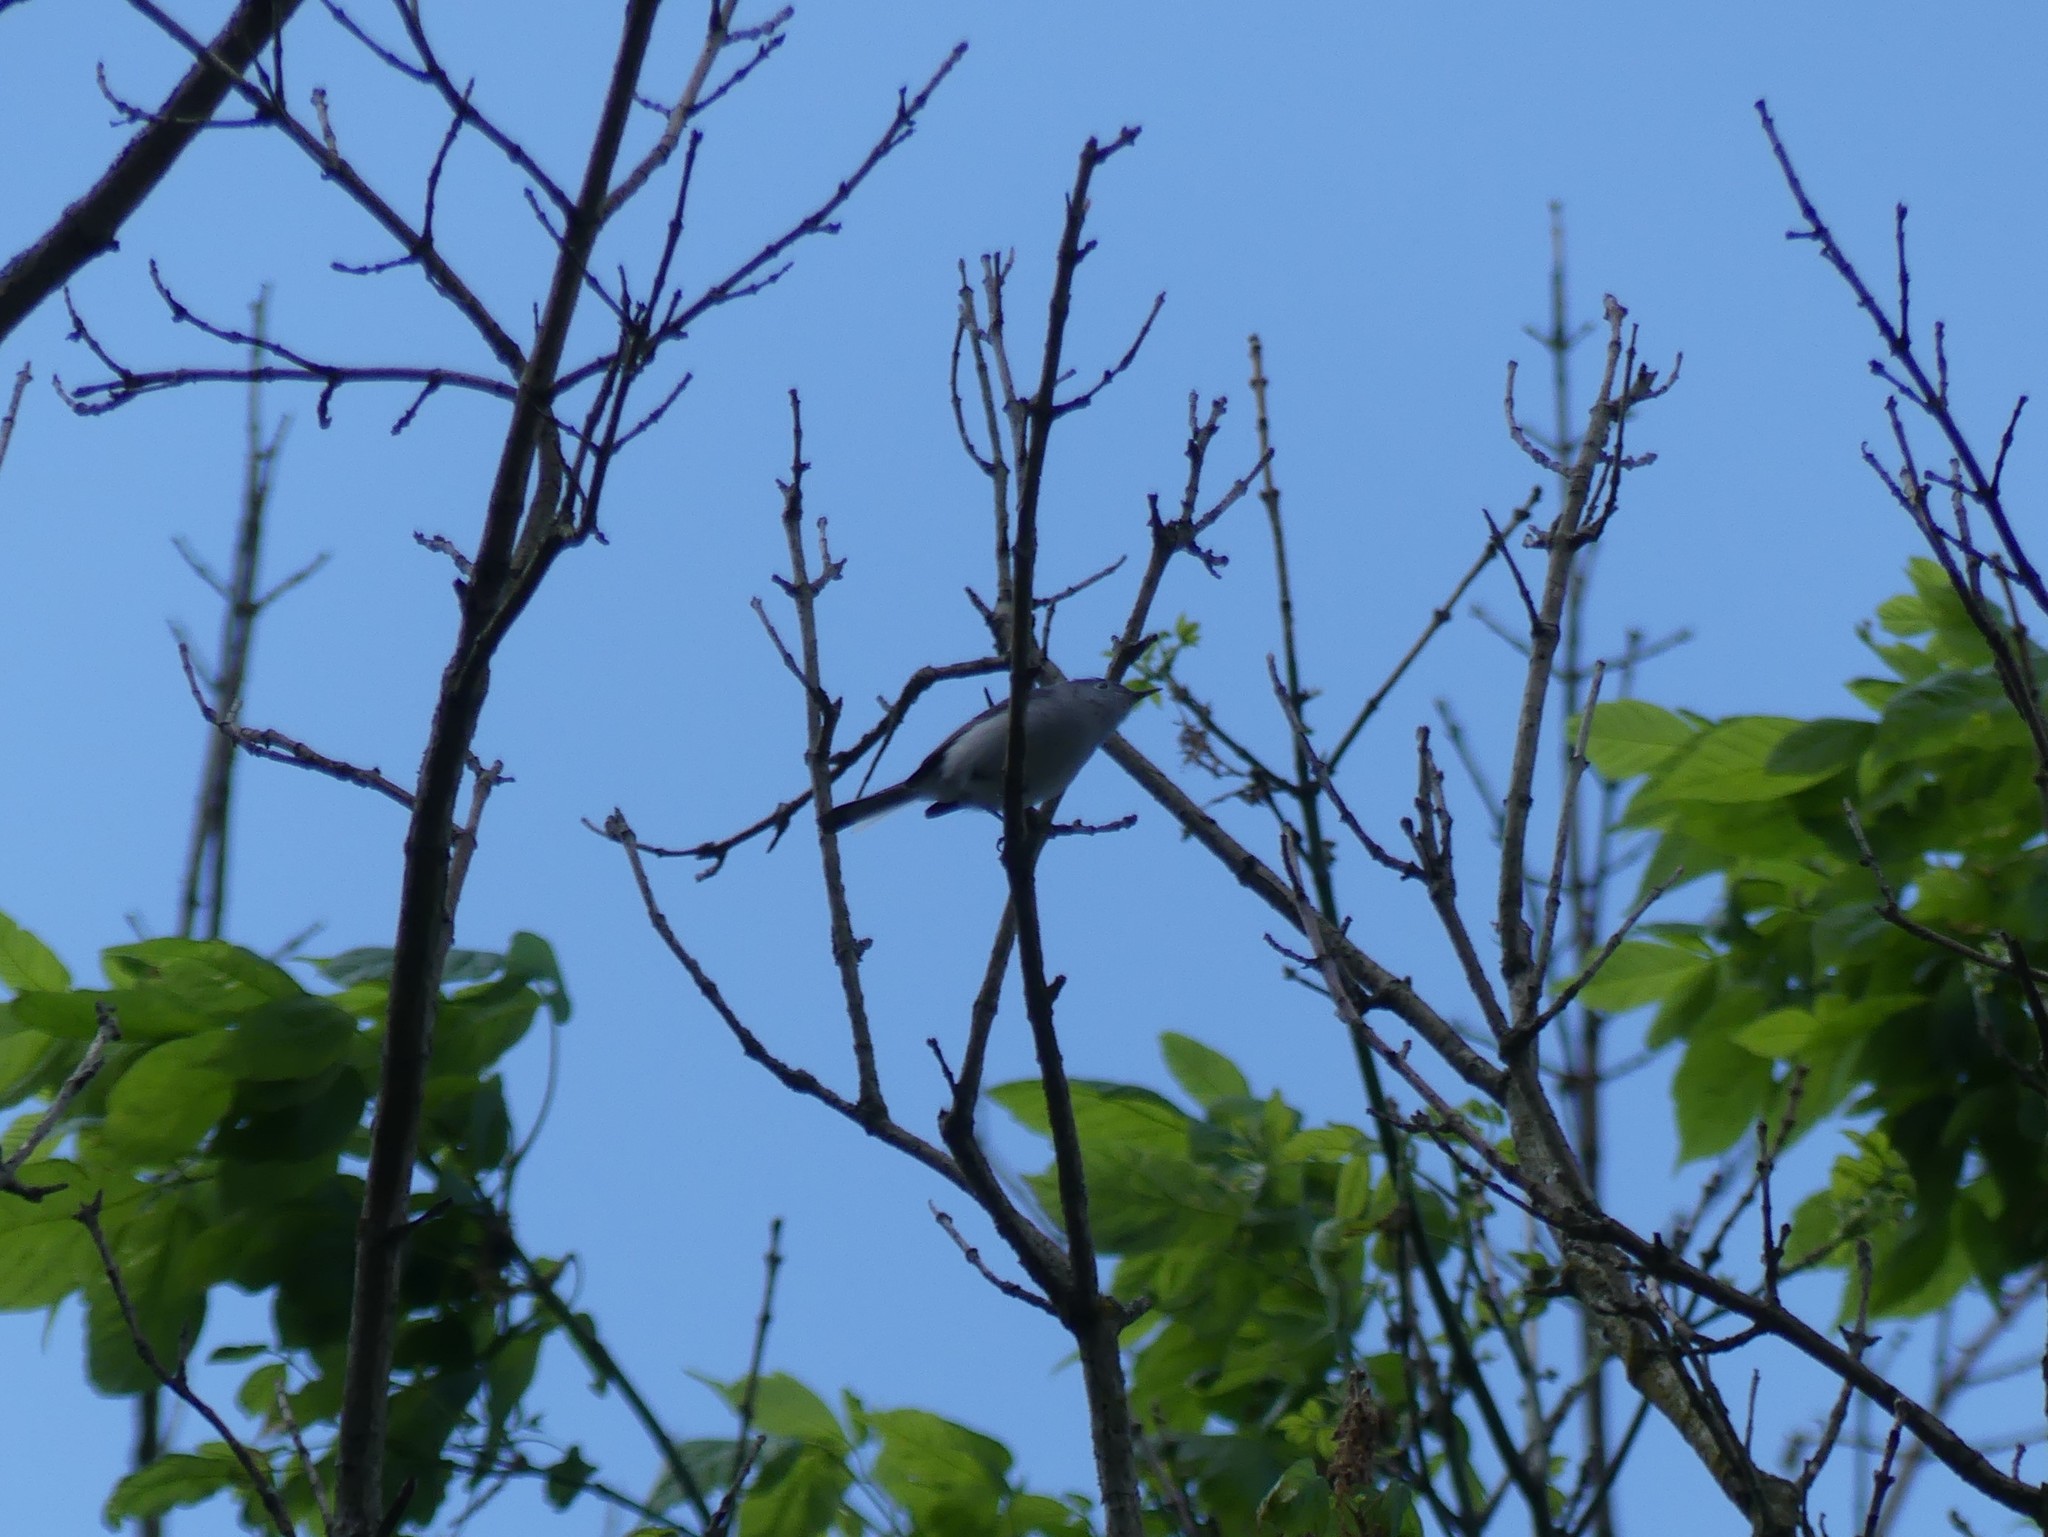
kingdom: Animalia
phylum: Chordata
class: Aves
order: Passeriformes
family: Polioptilidae
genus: Polioptila
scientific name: Polioptila caerulea
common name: Blue-gray gnatcatcher
